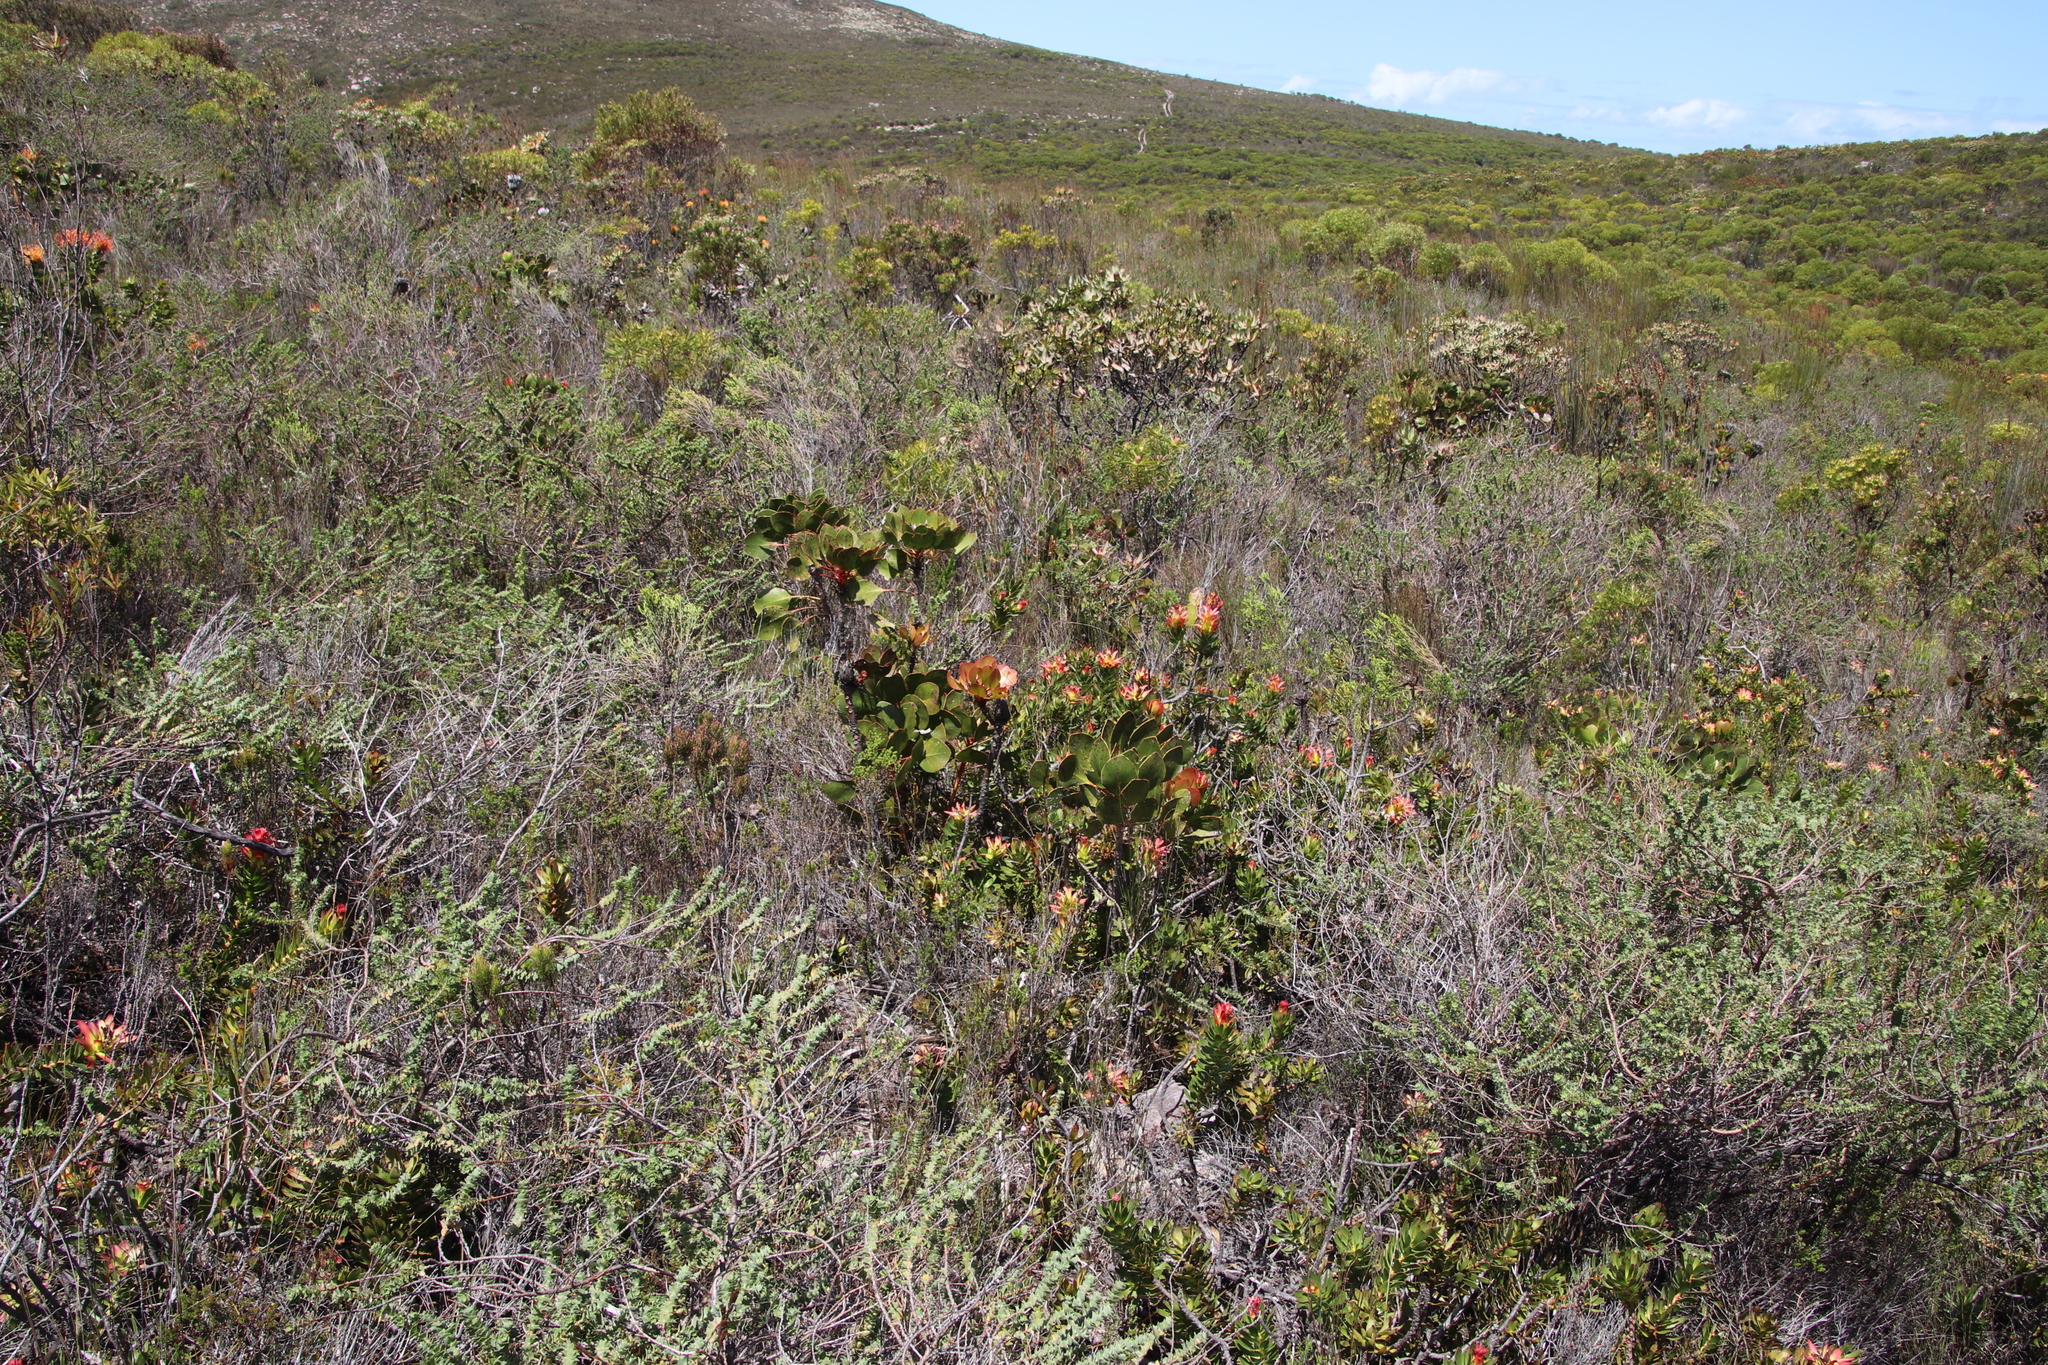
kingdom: Plantae
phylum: Tracheophyta
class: Magnoliopsida
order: Proteales
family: Proteaceae
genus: Protea
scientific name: Protea cynaroides
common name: King protea
